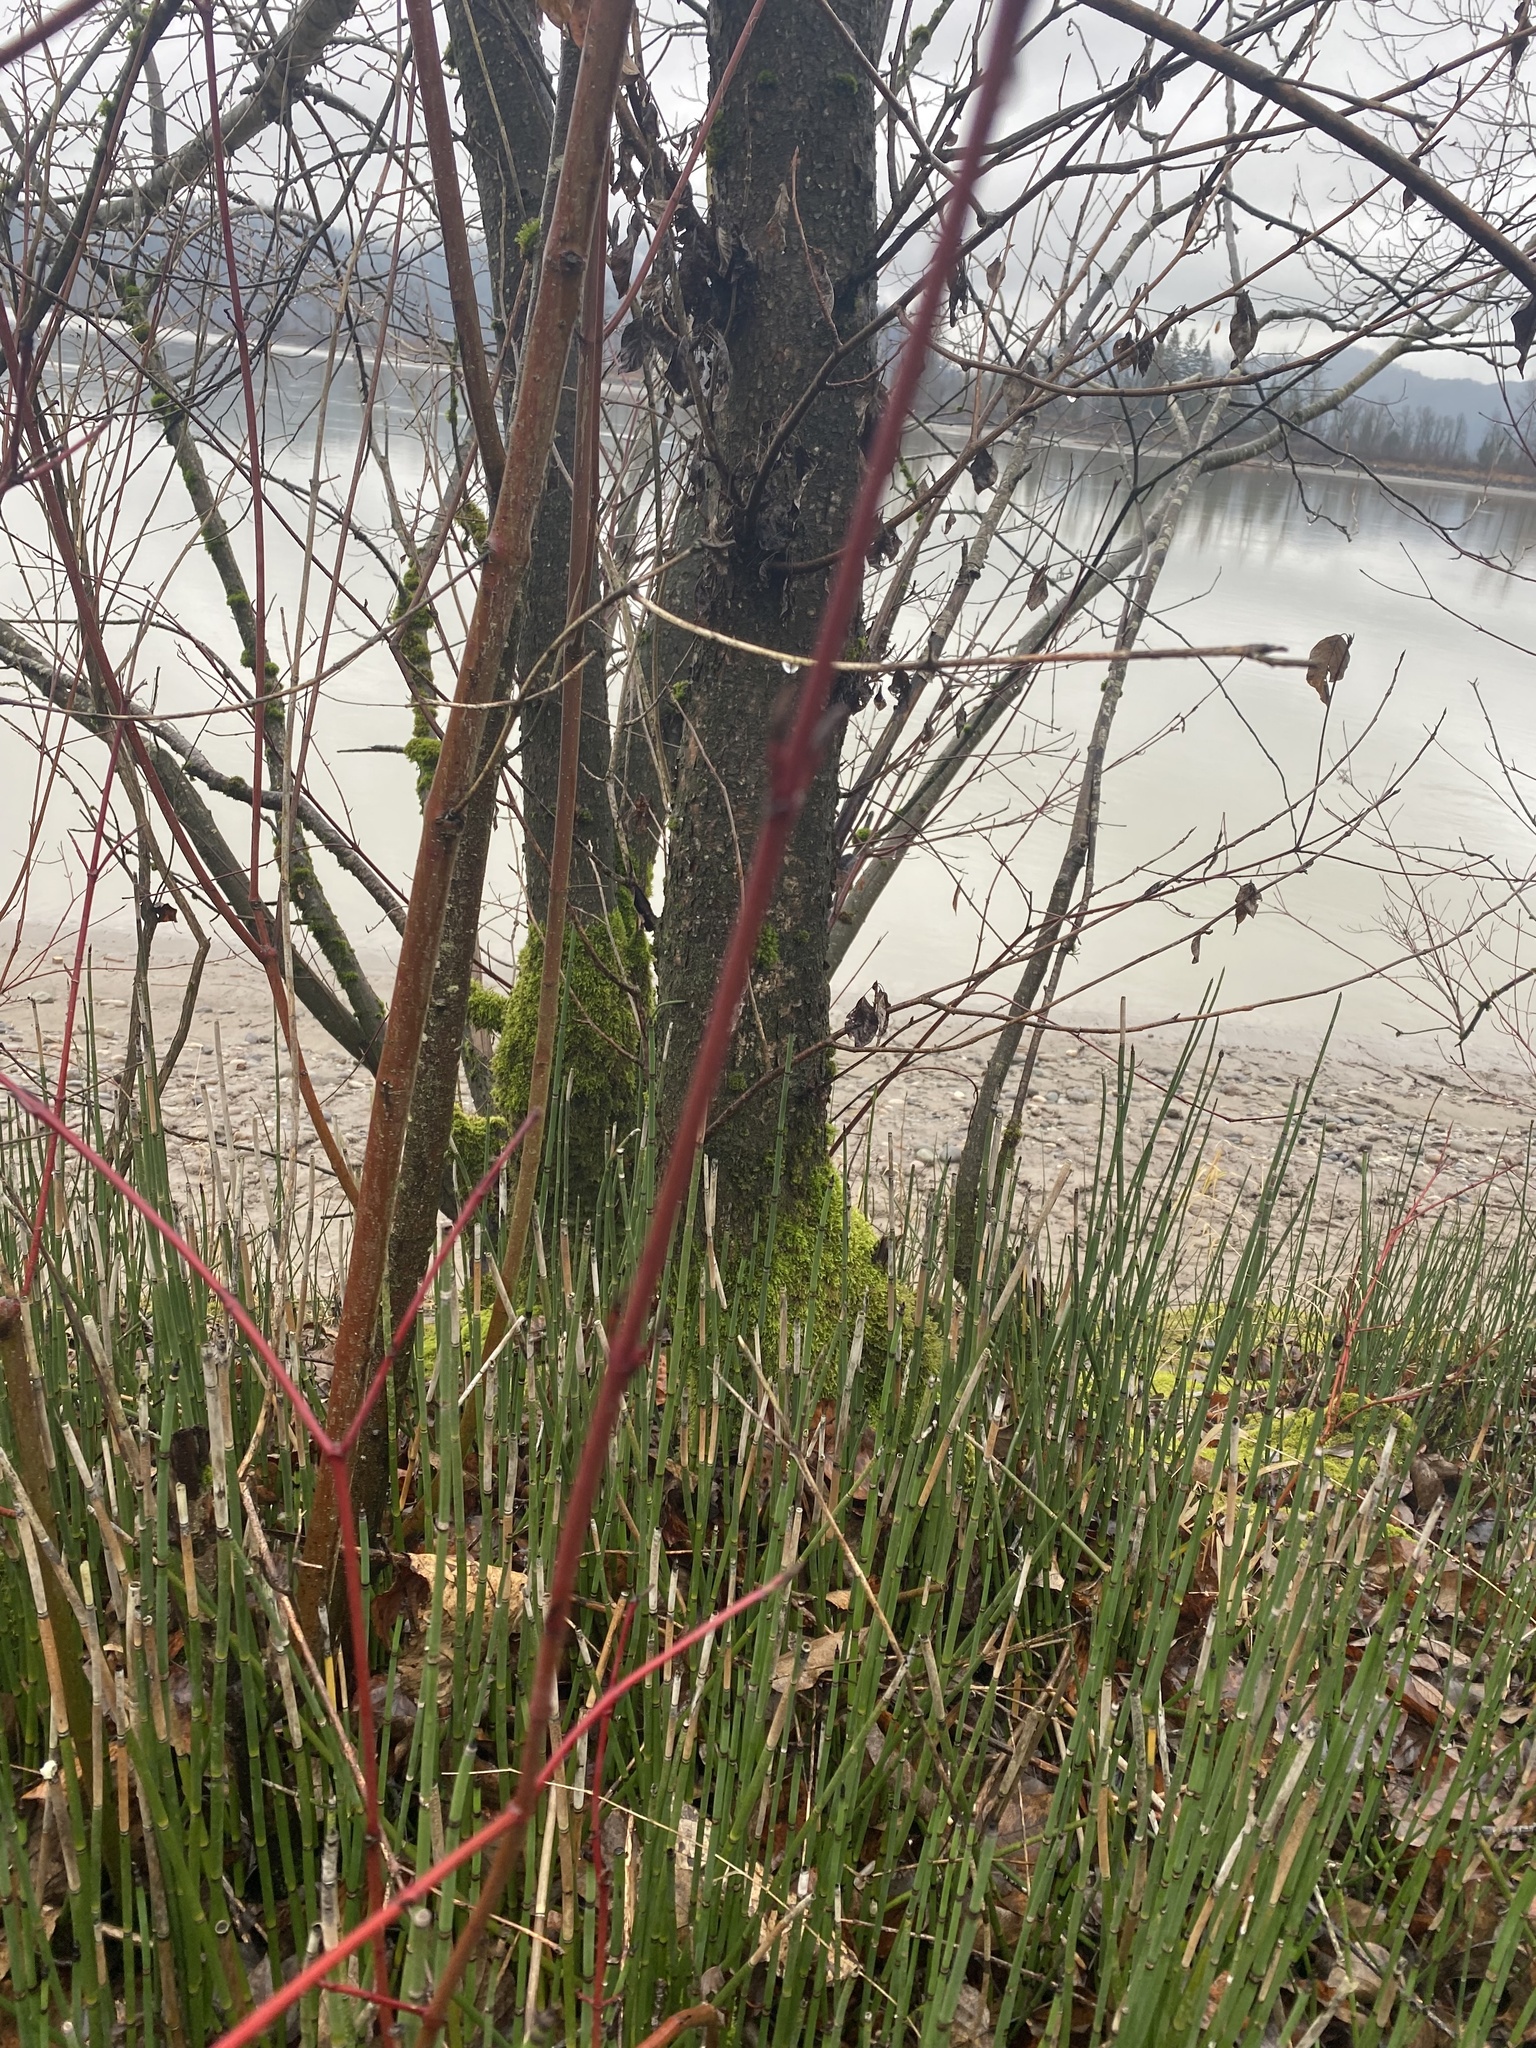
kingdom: Plantae
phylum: Tracheophyta
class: Magnoliopsida
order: Cornales
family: Cornaceae
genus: Cornus
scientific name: Cornus sericea
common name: Red-osier dogwood
